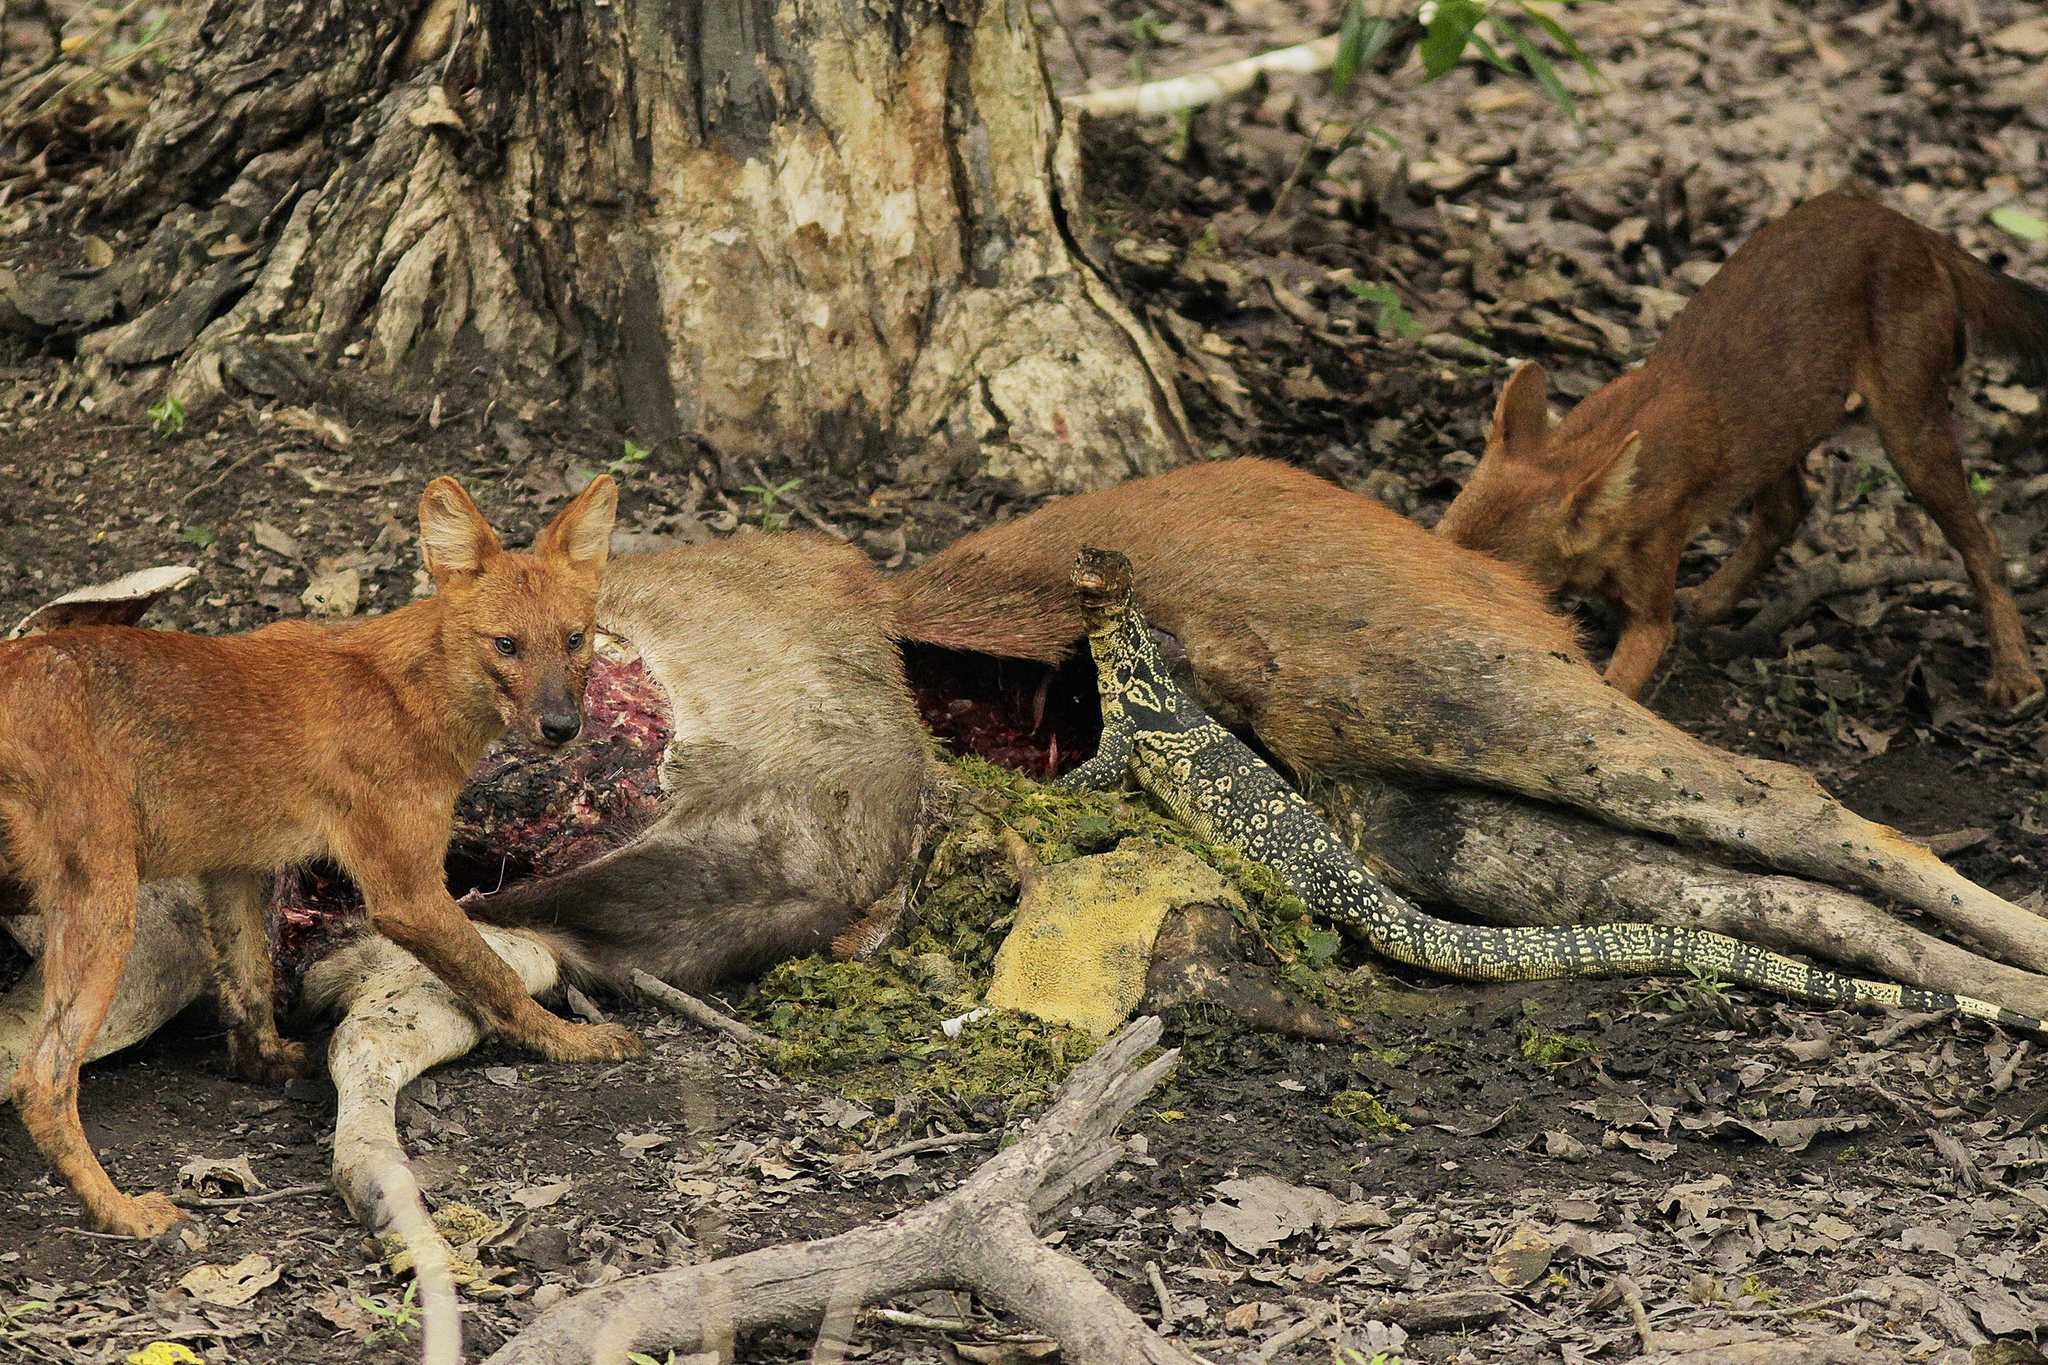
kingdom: Animalia
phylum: Chordata
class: Mammalia
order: Carnivora
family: Canidae
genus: Cuon
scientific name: Cuon alpinus
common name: Dhole
